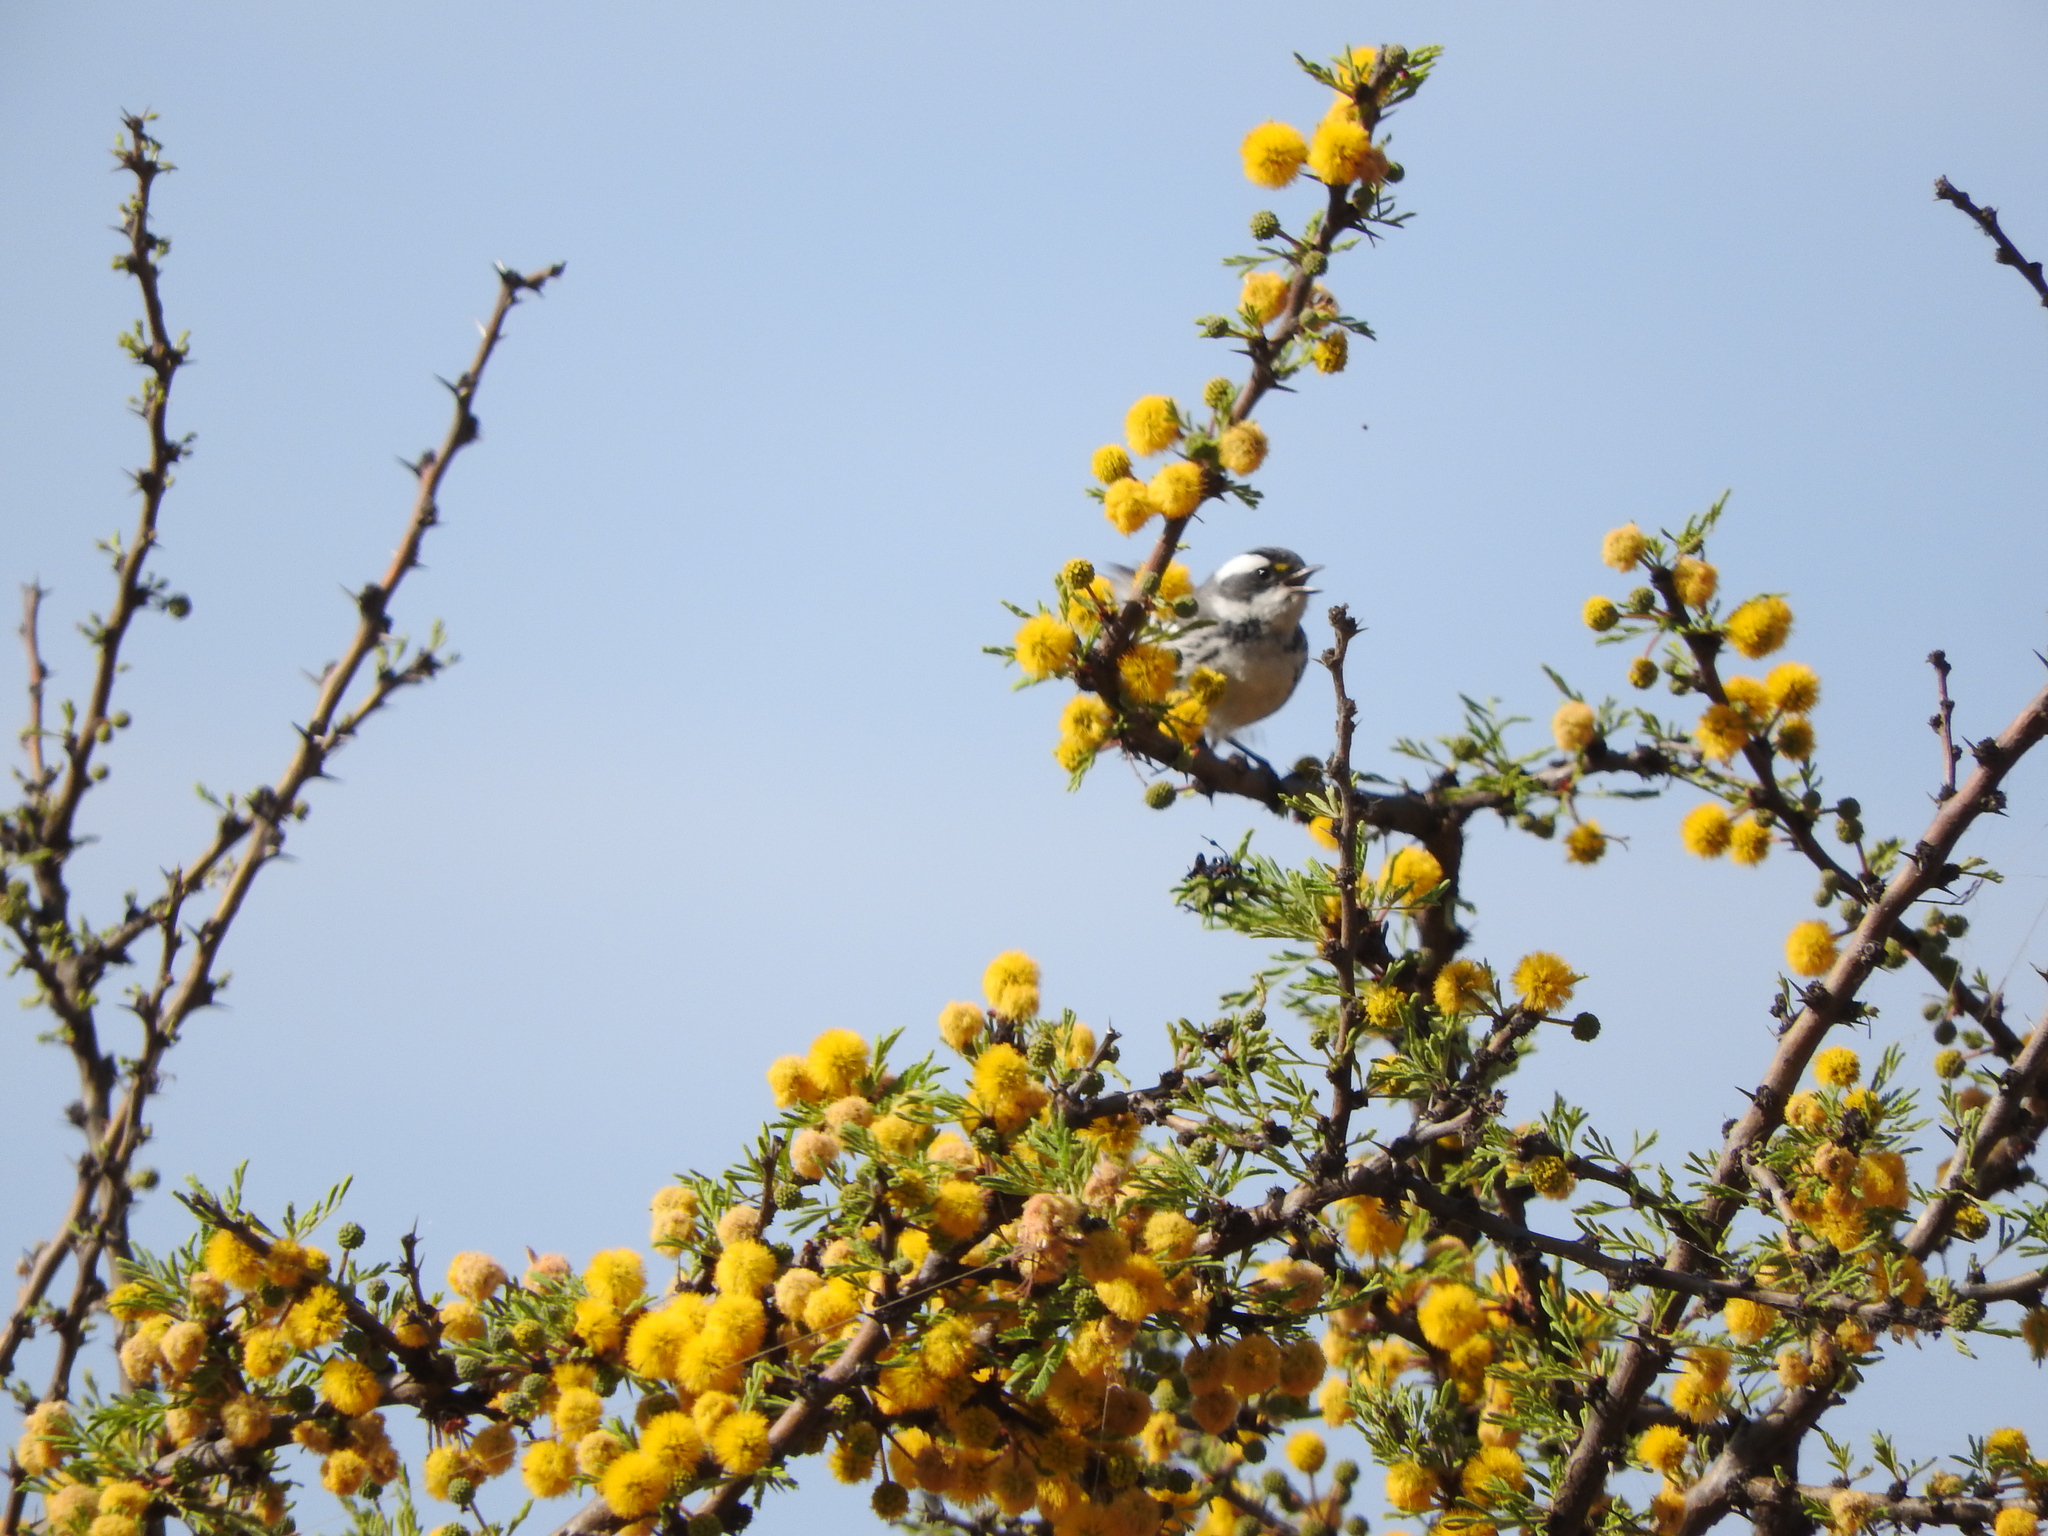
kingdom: Animalia
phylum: Chordata
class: Aves
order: Passeriformes
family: Parulidae
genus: Setophaga
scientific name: Setophaga nigrescens
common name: Black-throated gray warbler
